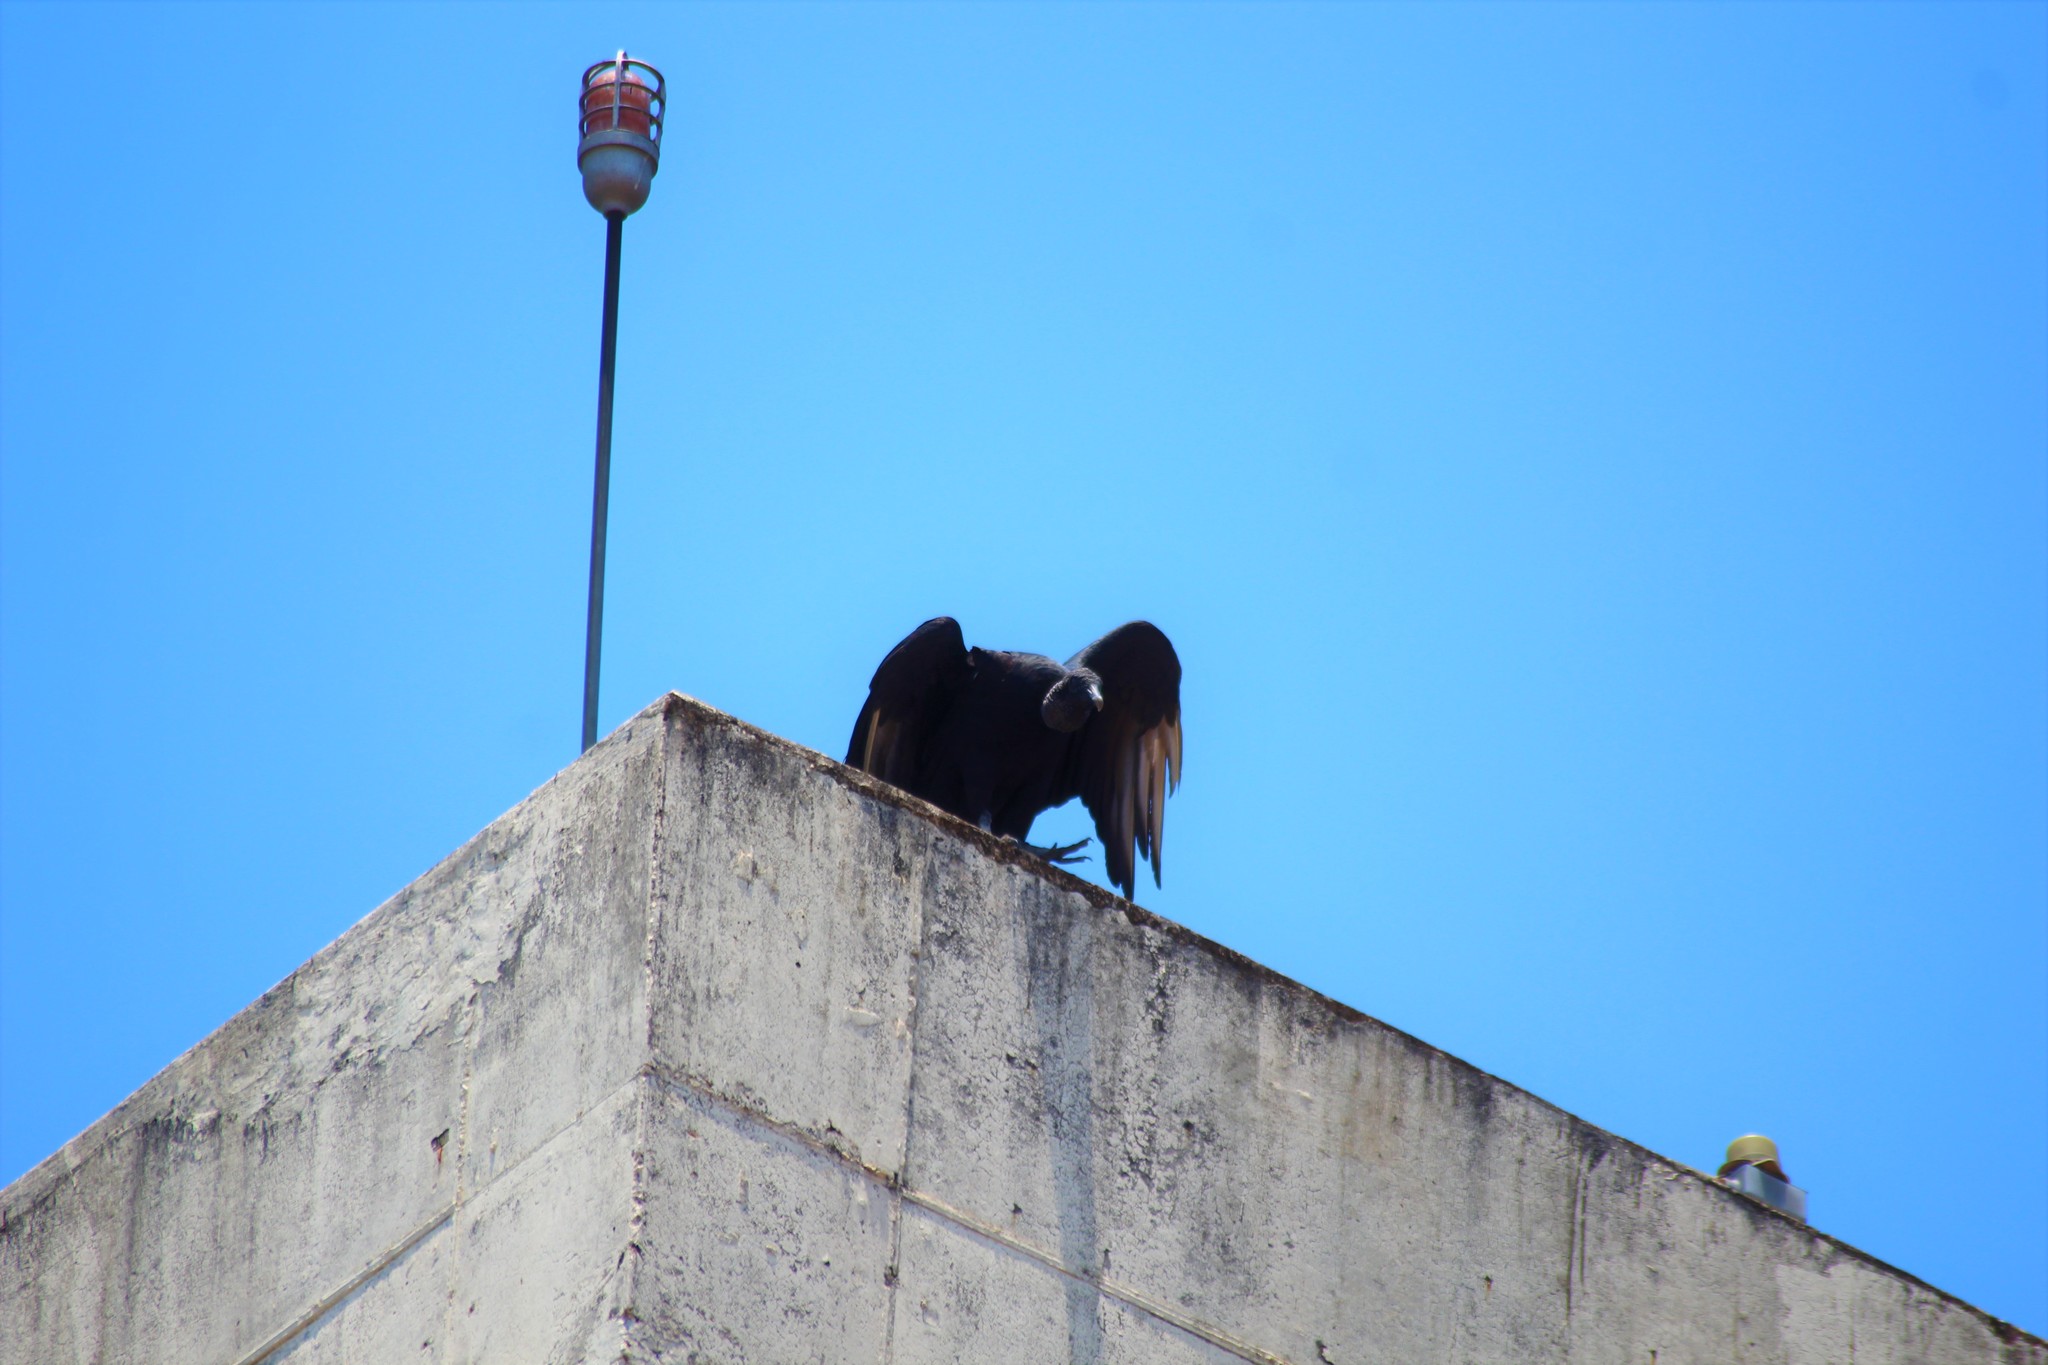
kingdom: Animalia
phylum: Chordata
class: Aves
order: Accipitriformes
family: Cathartidae
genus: Coragyps
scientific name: Coragyps atratus
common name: Black vulture
